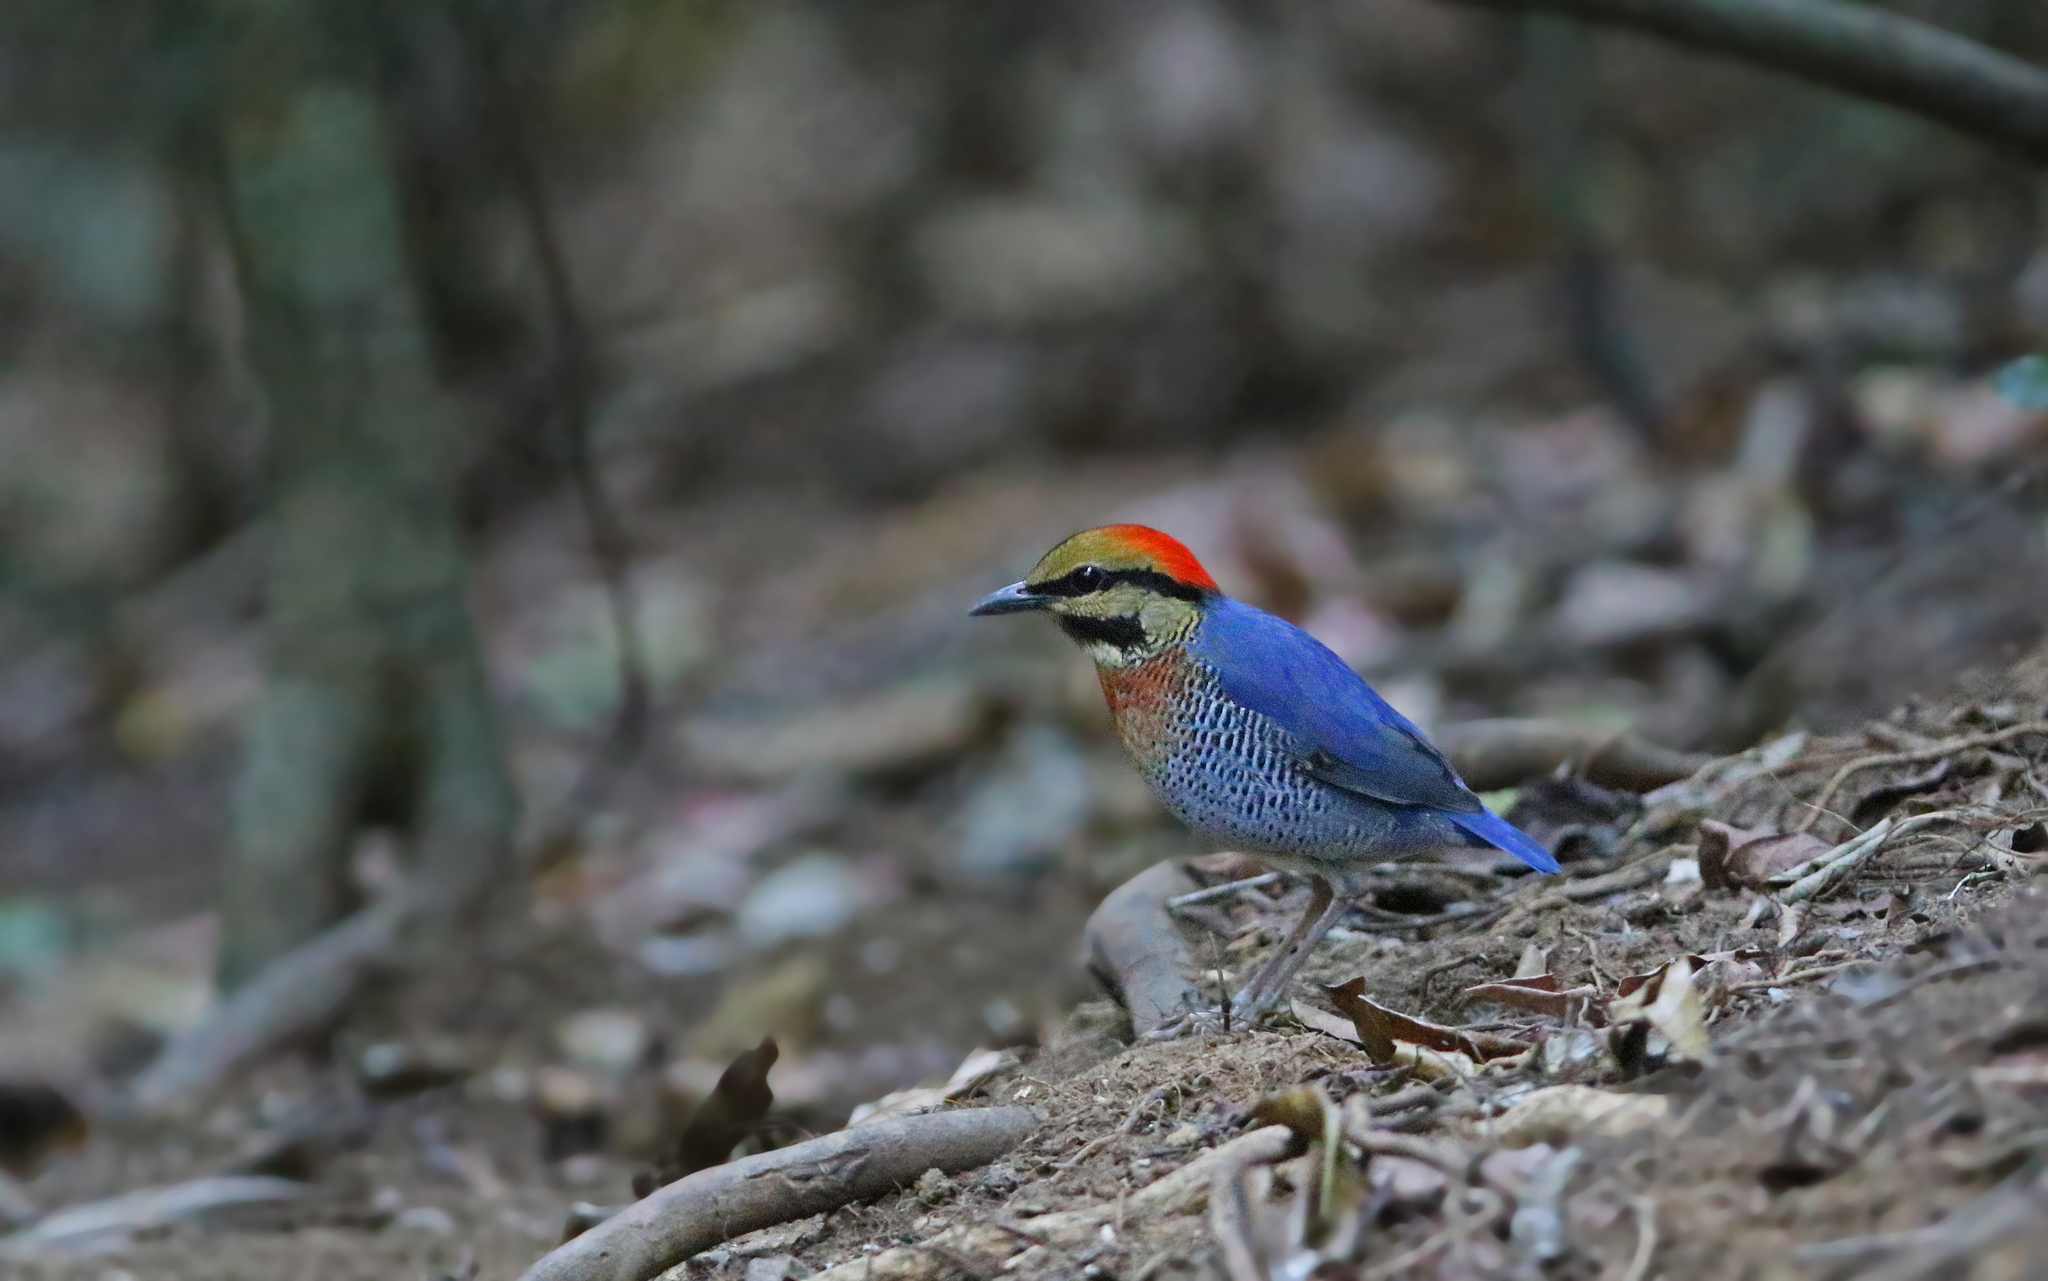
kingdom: Animalia
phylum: Chordata
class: Aves
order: Passeriformes
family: Pittidae
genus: Pitta
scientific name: Pitta cyanea
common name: Blue pitta
